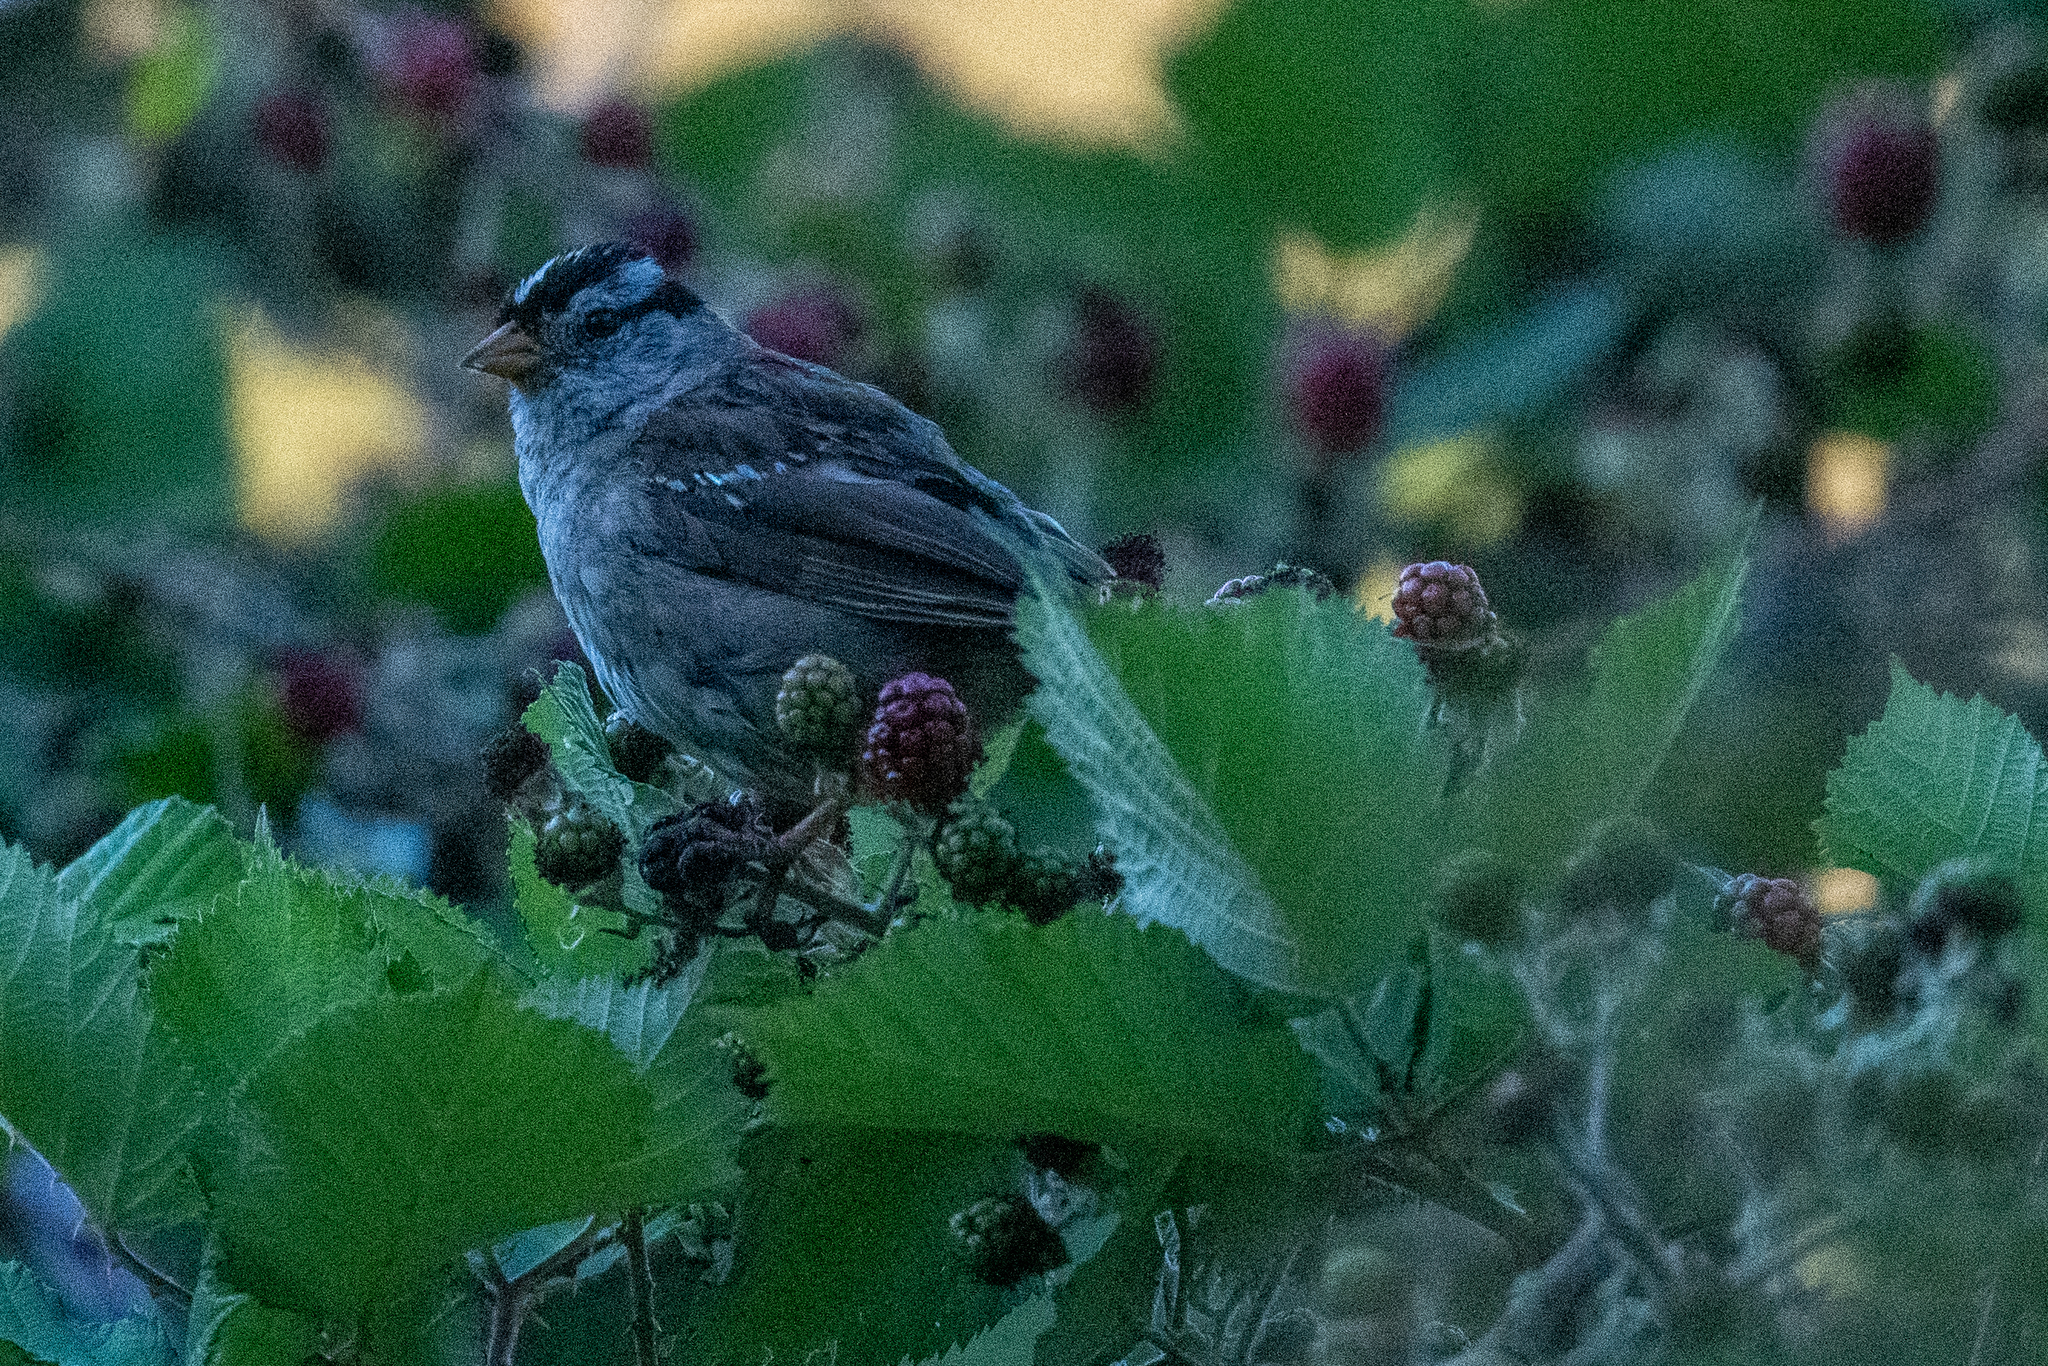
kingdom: Animalia
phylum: Chordata
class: Aves
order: Passeriformes
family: Passerellidae
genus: Zonotrichia
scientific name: Zonotrichia leucophrys
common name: White-crowned sparrow
